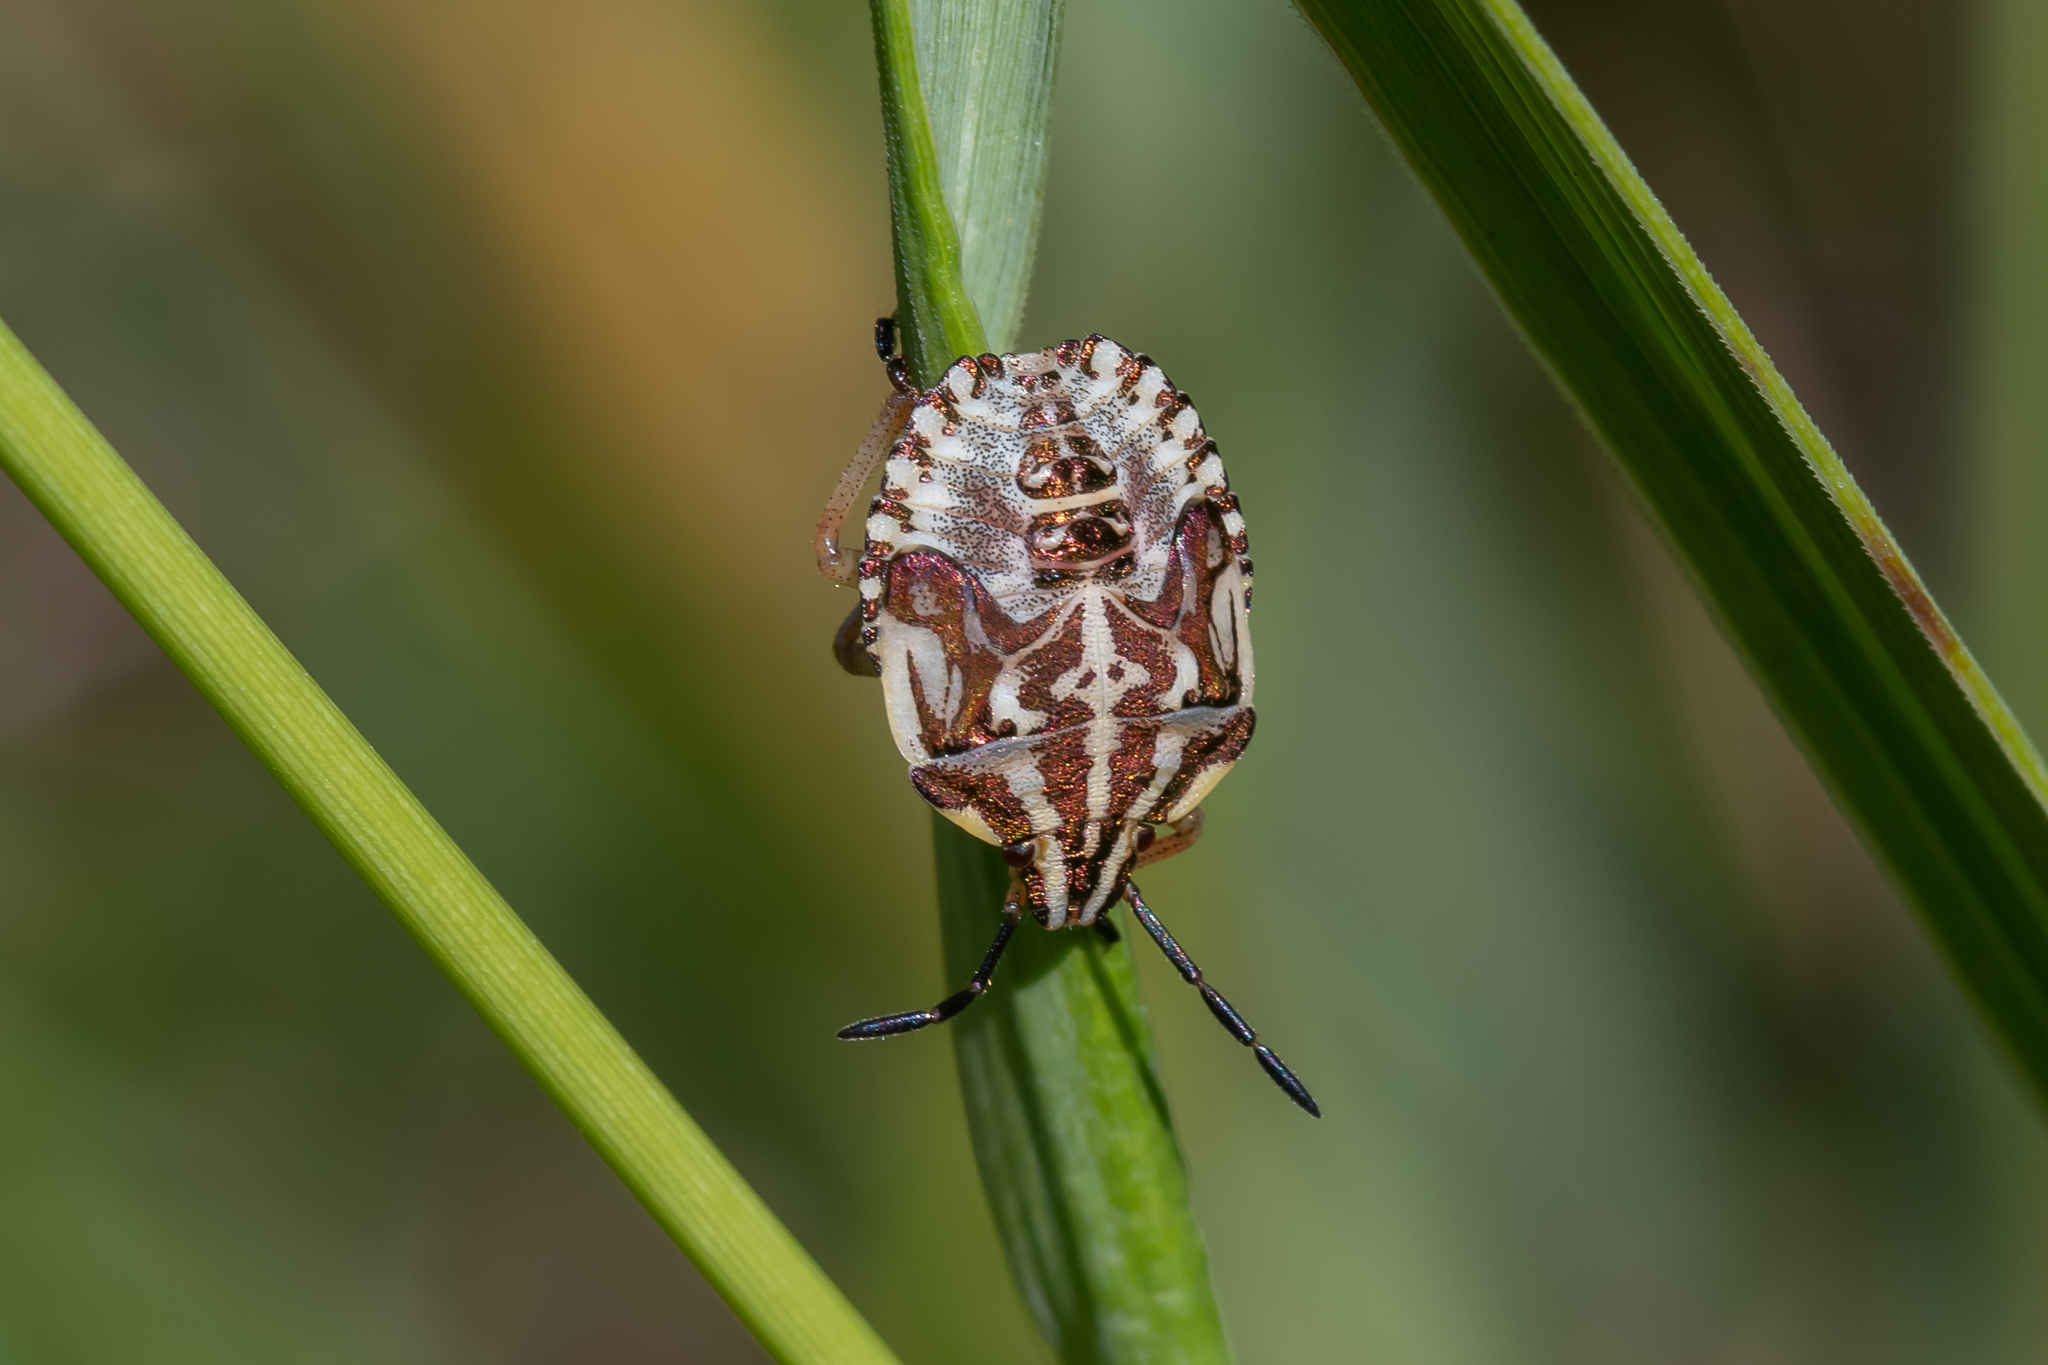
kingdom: Animalia
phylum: Arthropoda
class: Insecta
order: Hemiptera
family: Pentatomidae
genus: Carpocoris
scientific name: Carpocoris purpureipennis
